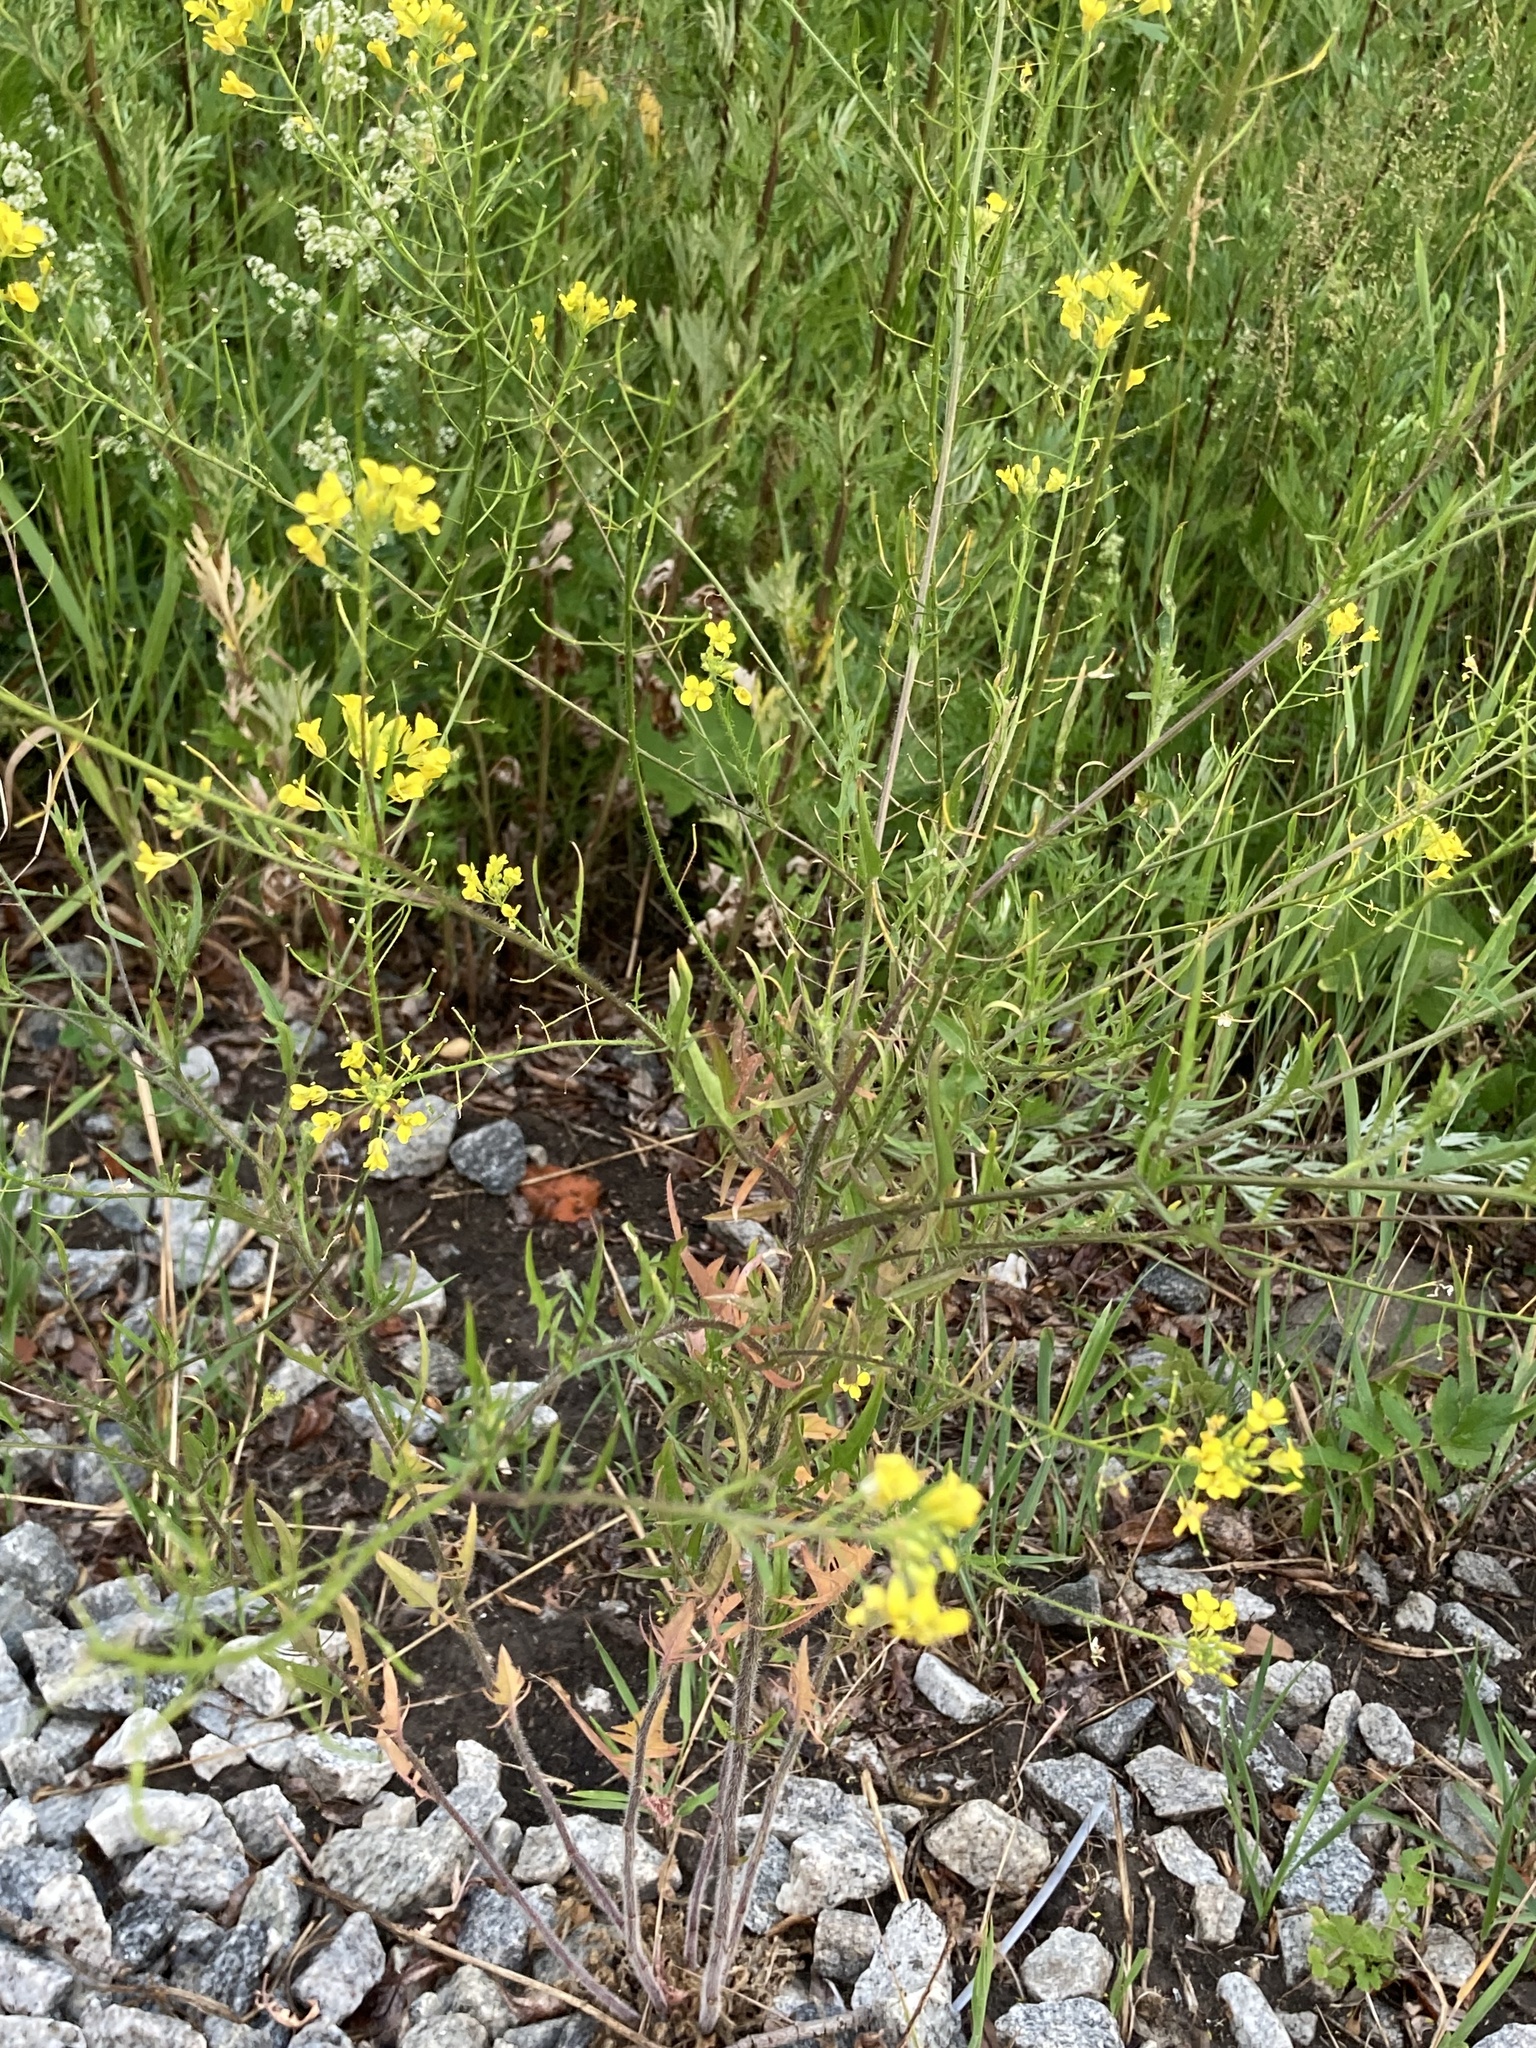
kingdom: Plantae
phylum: Tracheophyta
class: Magnoliopsida
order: Brassicales
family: Brassicaceae
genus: Sisymbrium
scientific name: Sisymbrium loeselii
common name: False london-rocket
